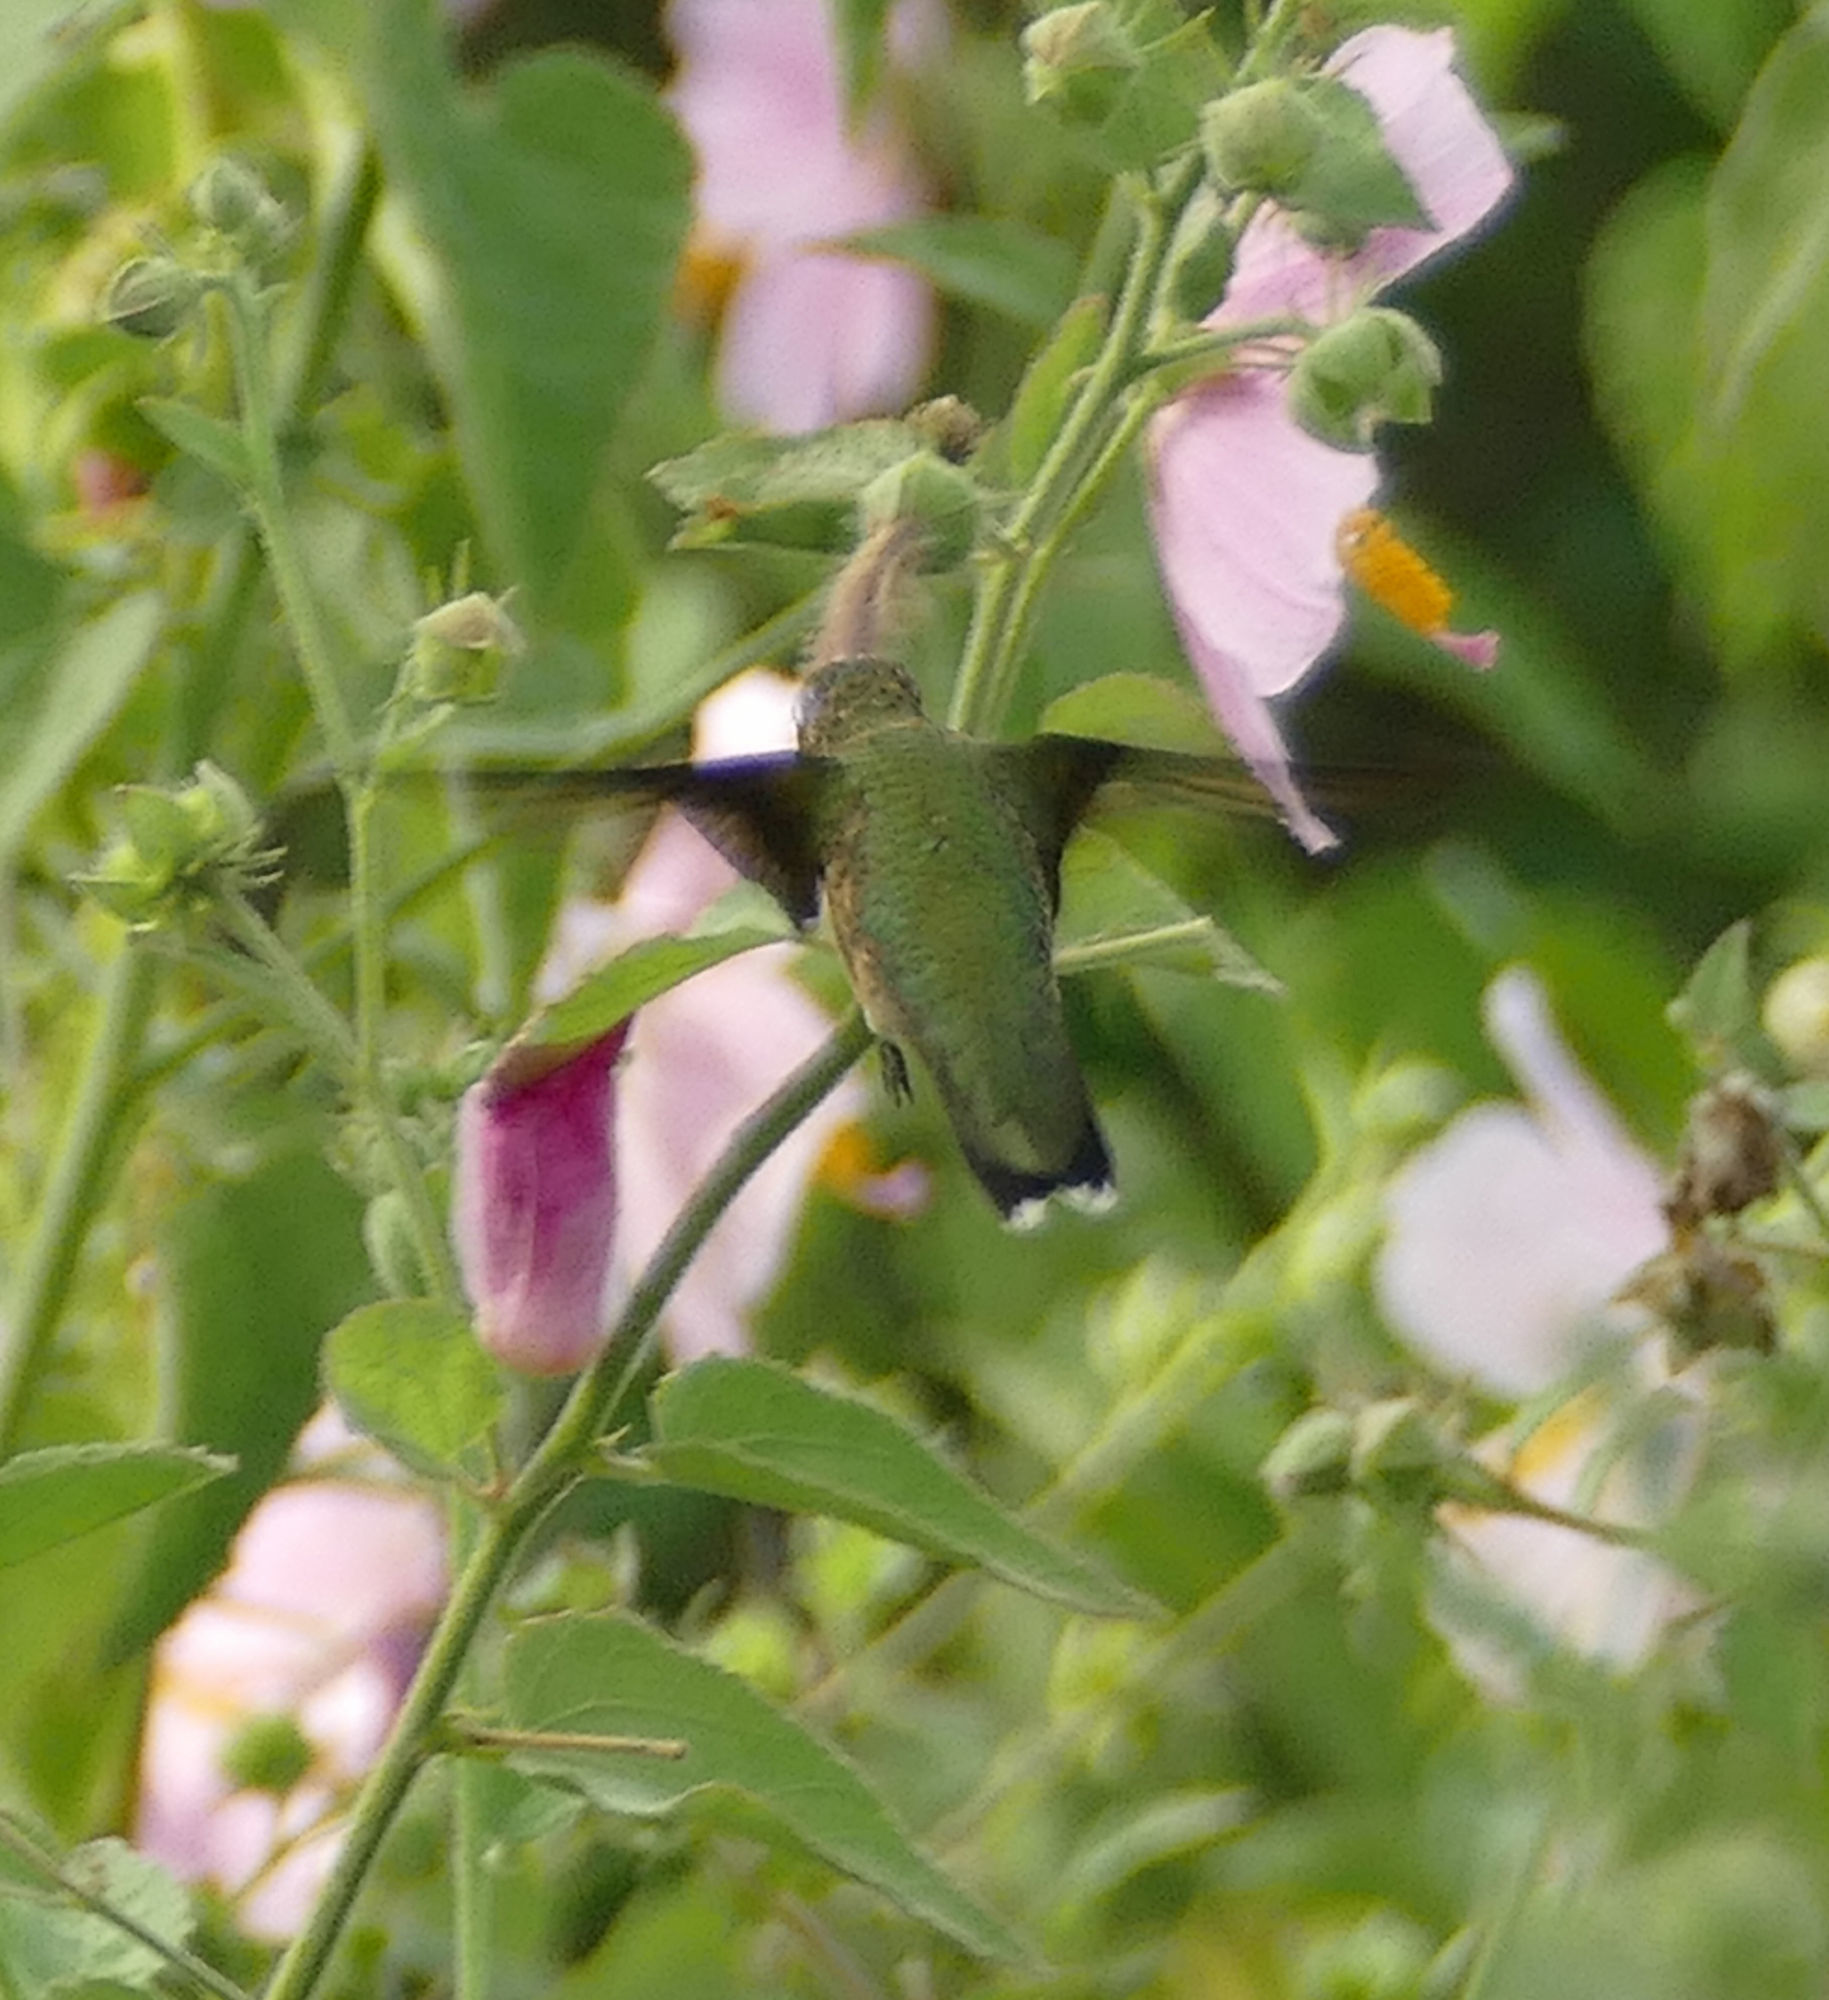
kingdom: Animalia
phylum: Chordata
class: Aves
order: Apodiformes
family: Trochilidae
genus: Archilochus
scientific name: Archilochus colubris
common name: Ruby-throated hummingbird
